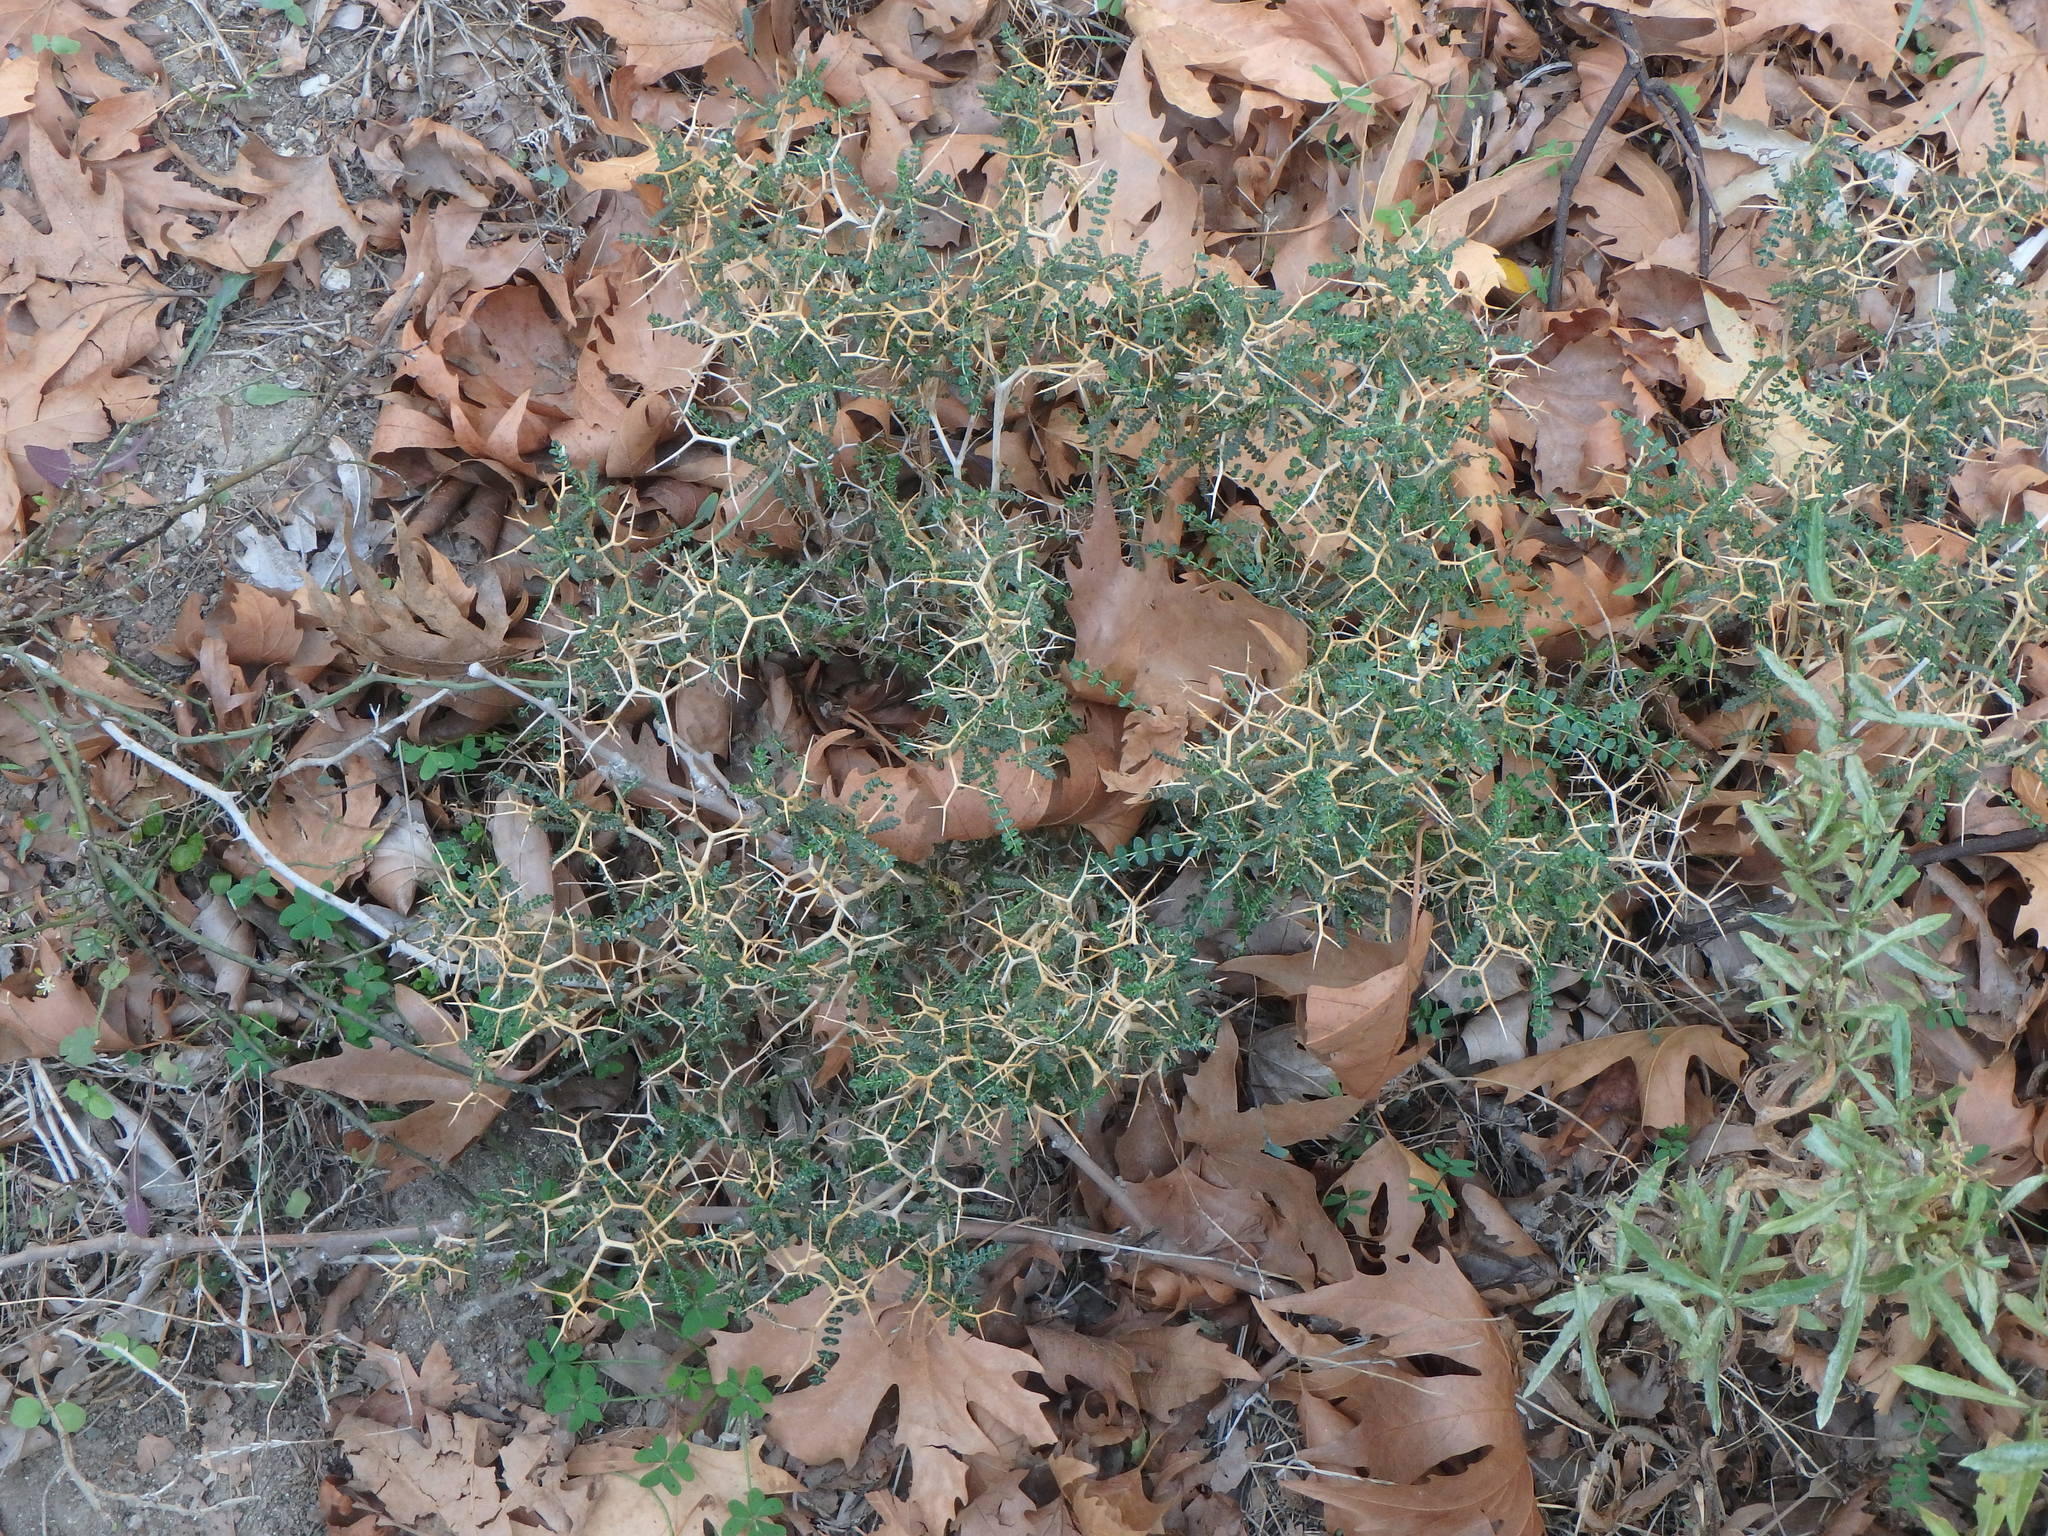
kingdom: Plantae
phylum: Tracheophyta
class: Magnoliopsida
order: Rosales
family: Rosaceae
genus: Sarcopoterium
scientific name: Sarcopoterium spinosum
